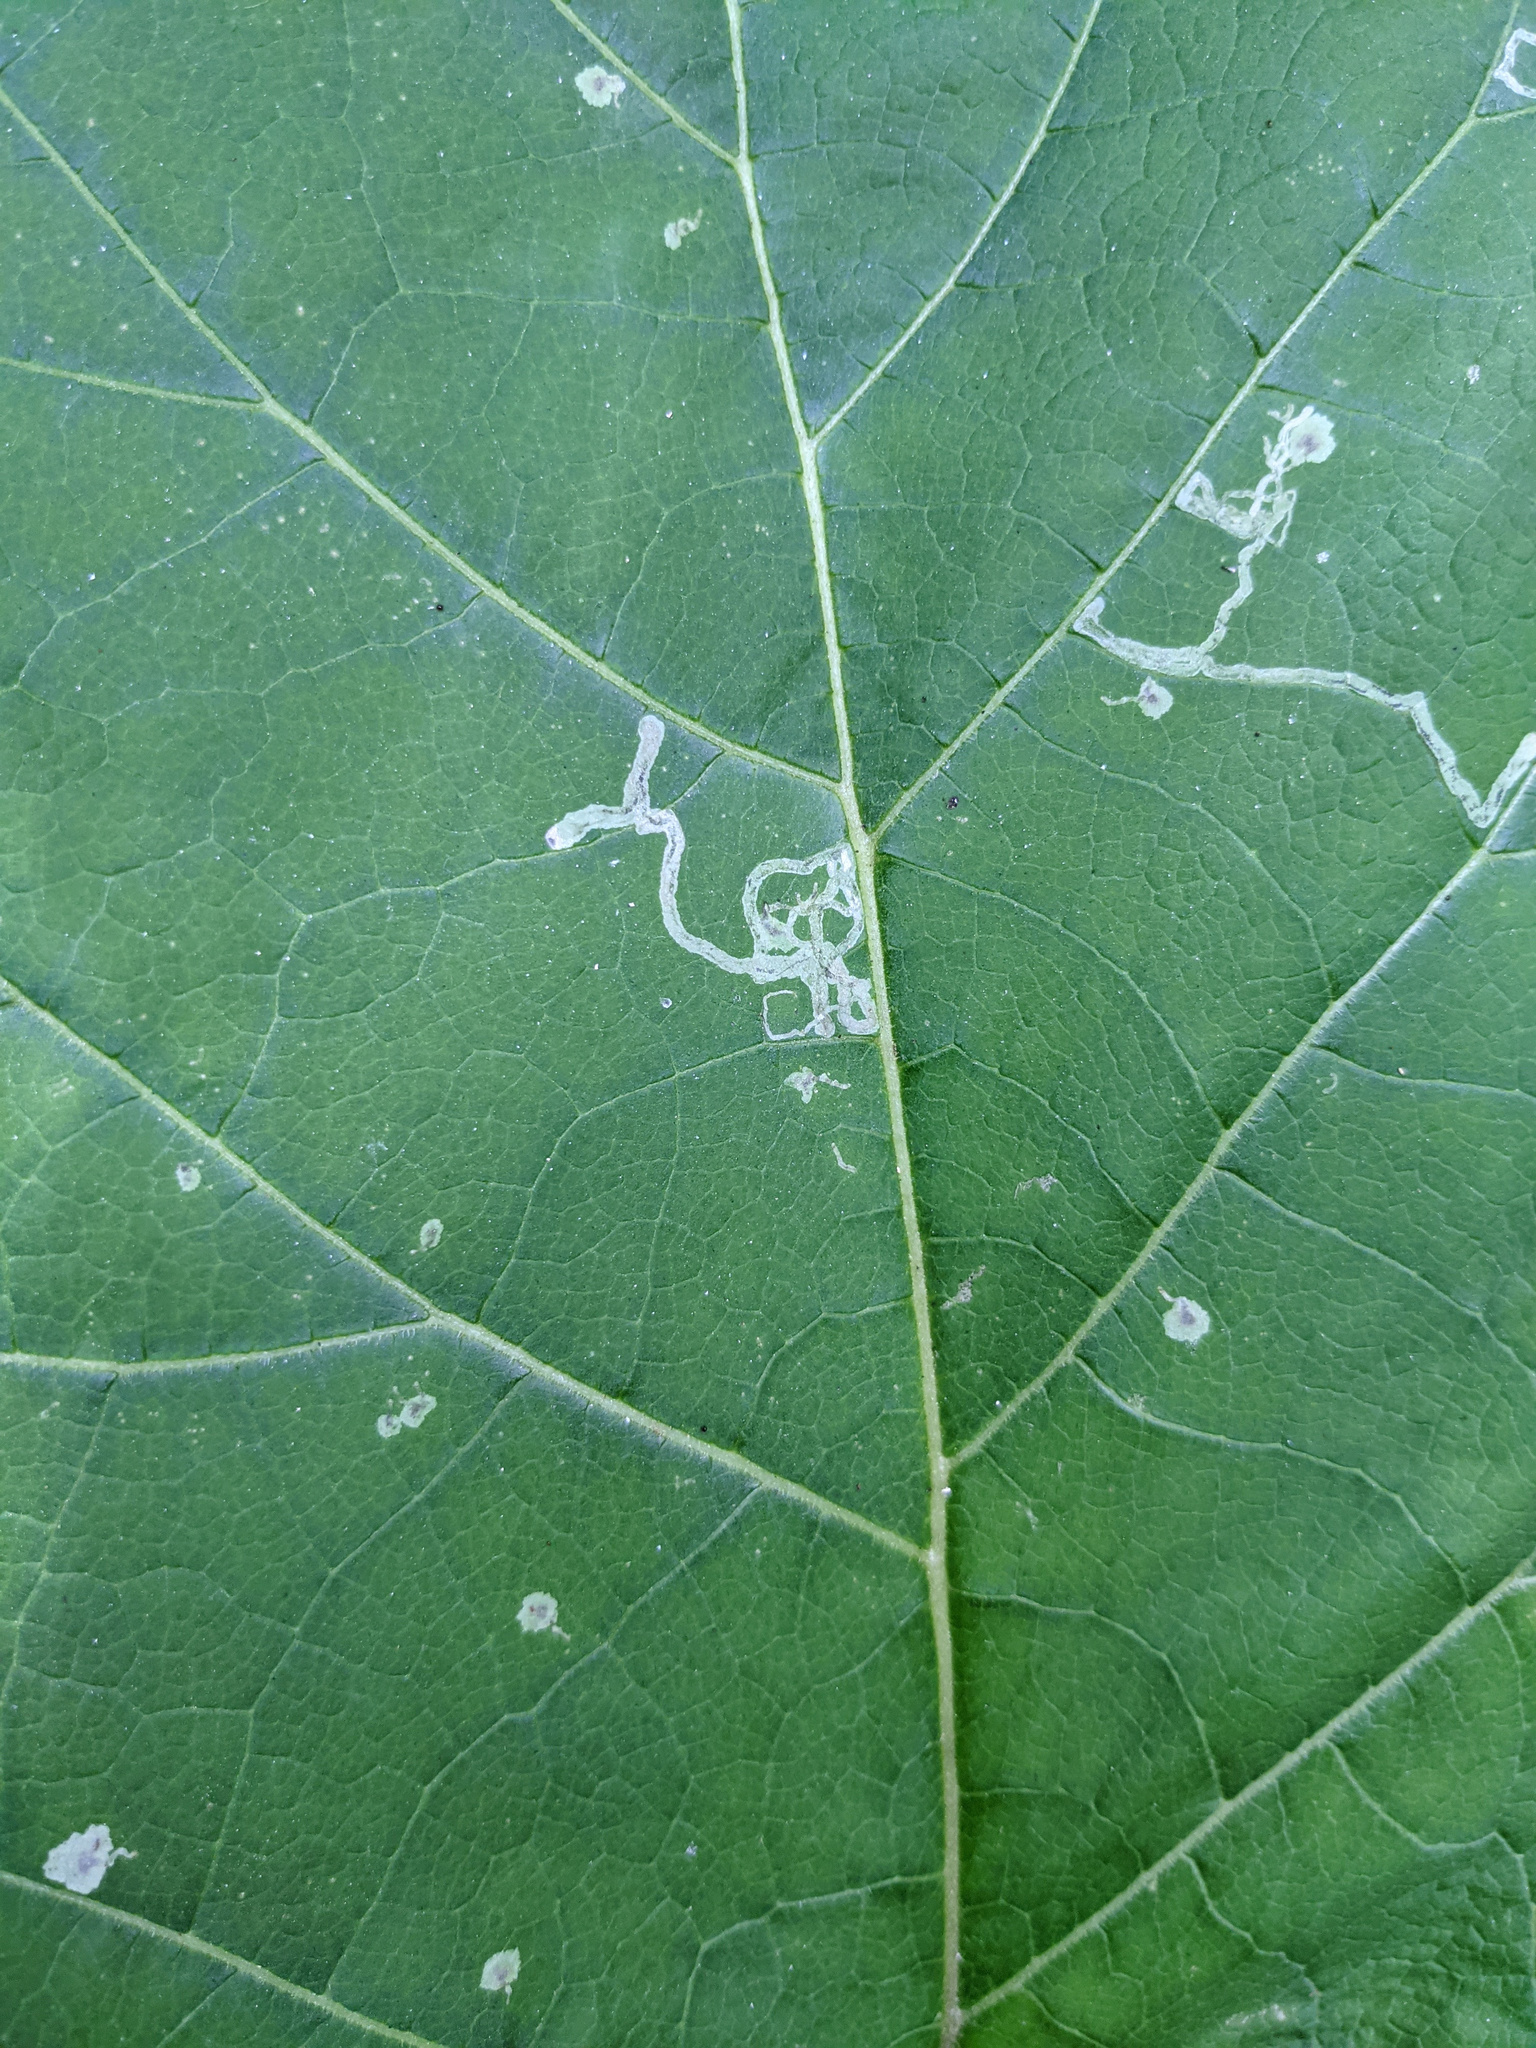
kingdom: Animalia
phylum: Arthropoda
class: Insecta
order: Diptera
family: Agromyzidae
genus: Liriomyza
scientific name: Liriomyza arctii
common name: Burdock leafminer
